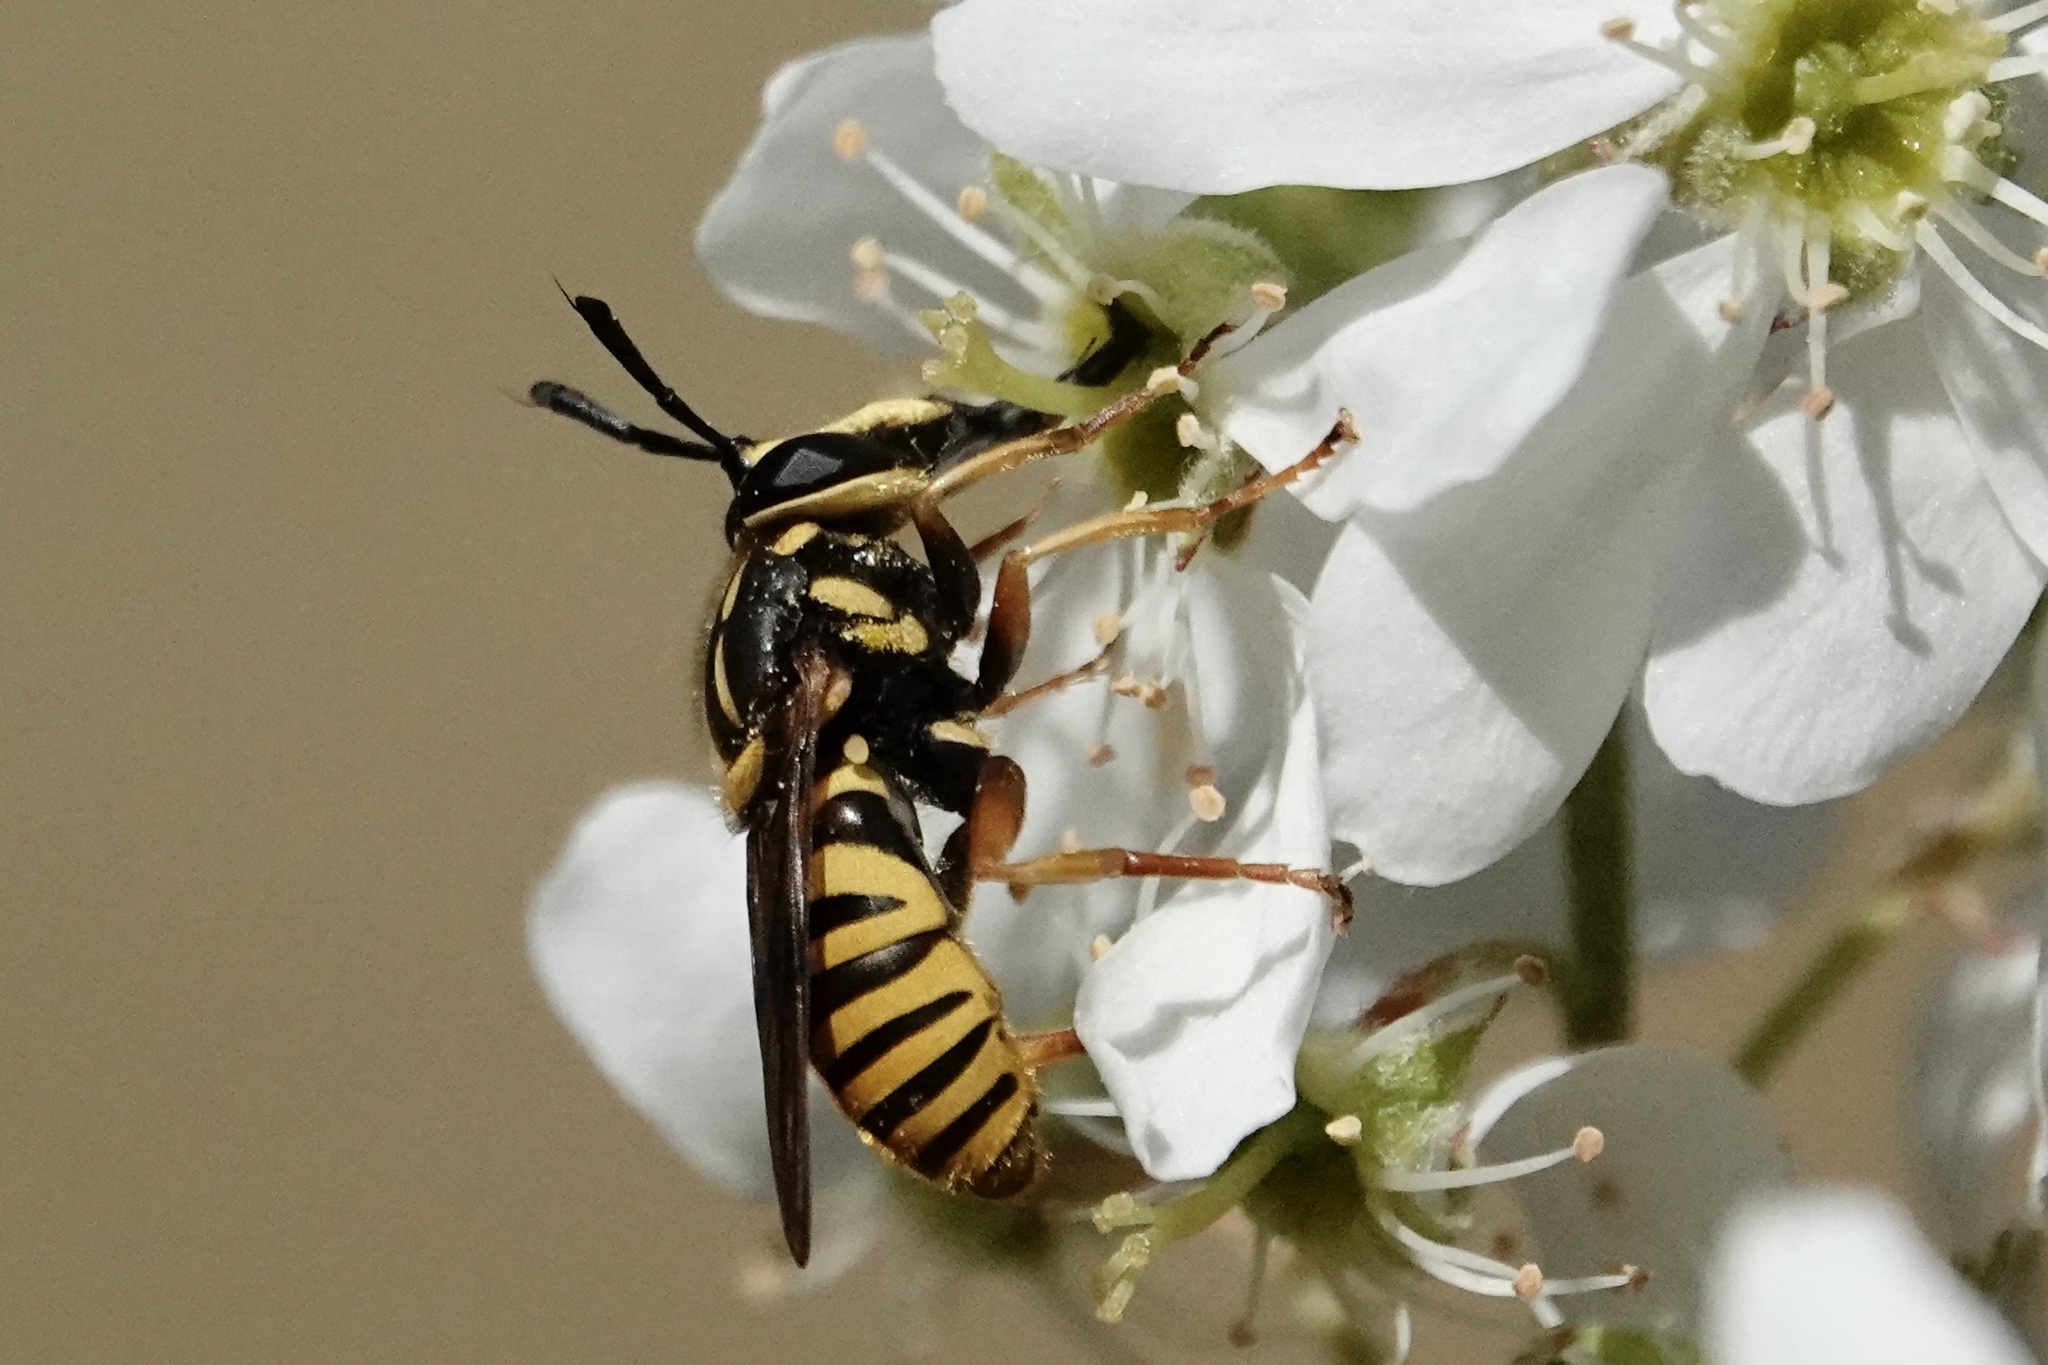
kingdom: Animalia
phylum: Arthropoda
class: Insecta
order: Diptera
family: Syrphidae
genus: Sphecomyia
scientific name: Sphecomyia vittata
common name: Long-horned yellowjacket fly
